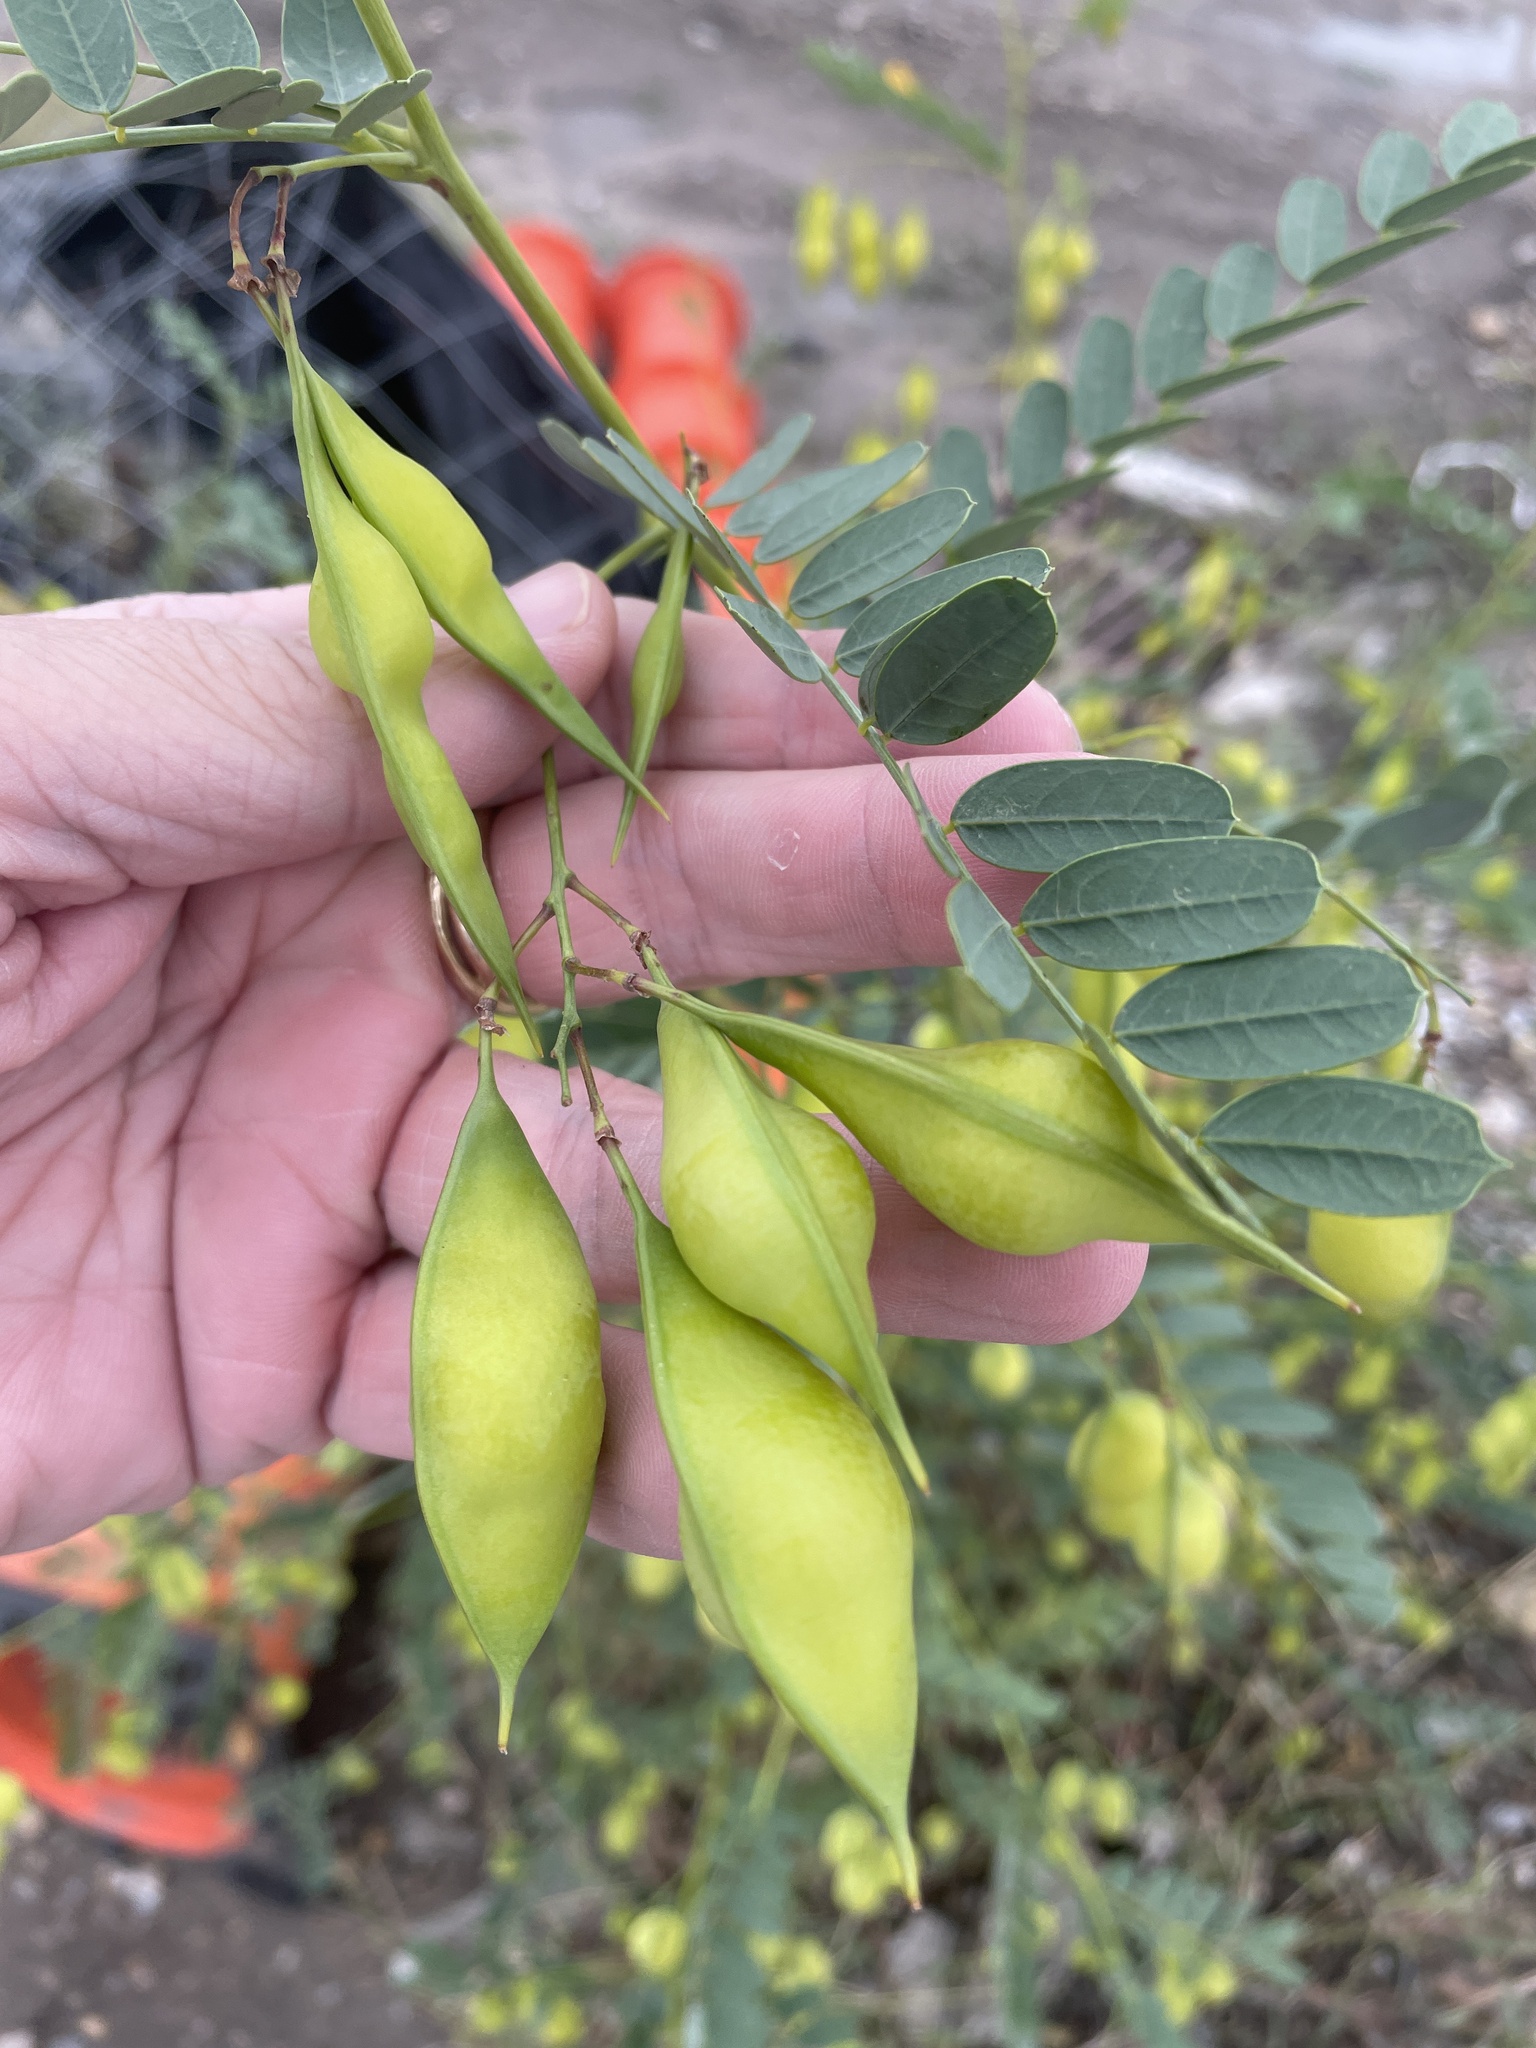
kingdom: Plantae
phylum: Tracheophyta
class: Magnoliopsida
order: Fabales
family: Fabaceae
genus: Sesbania
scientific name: Sesbania vesicaria
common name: Bagpod
